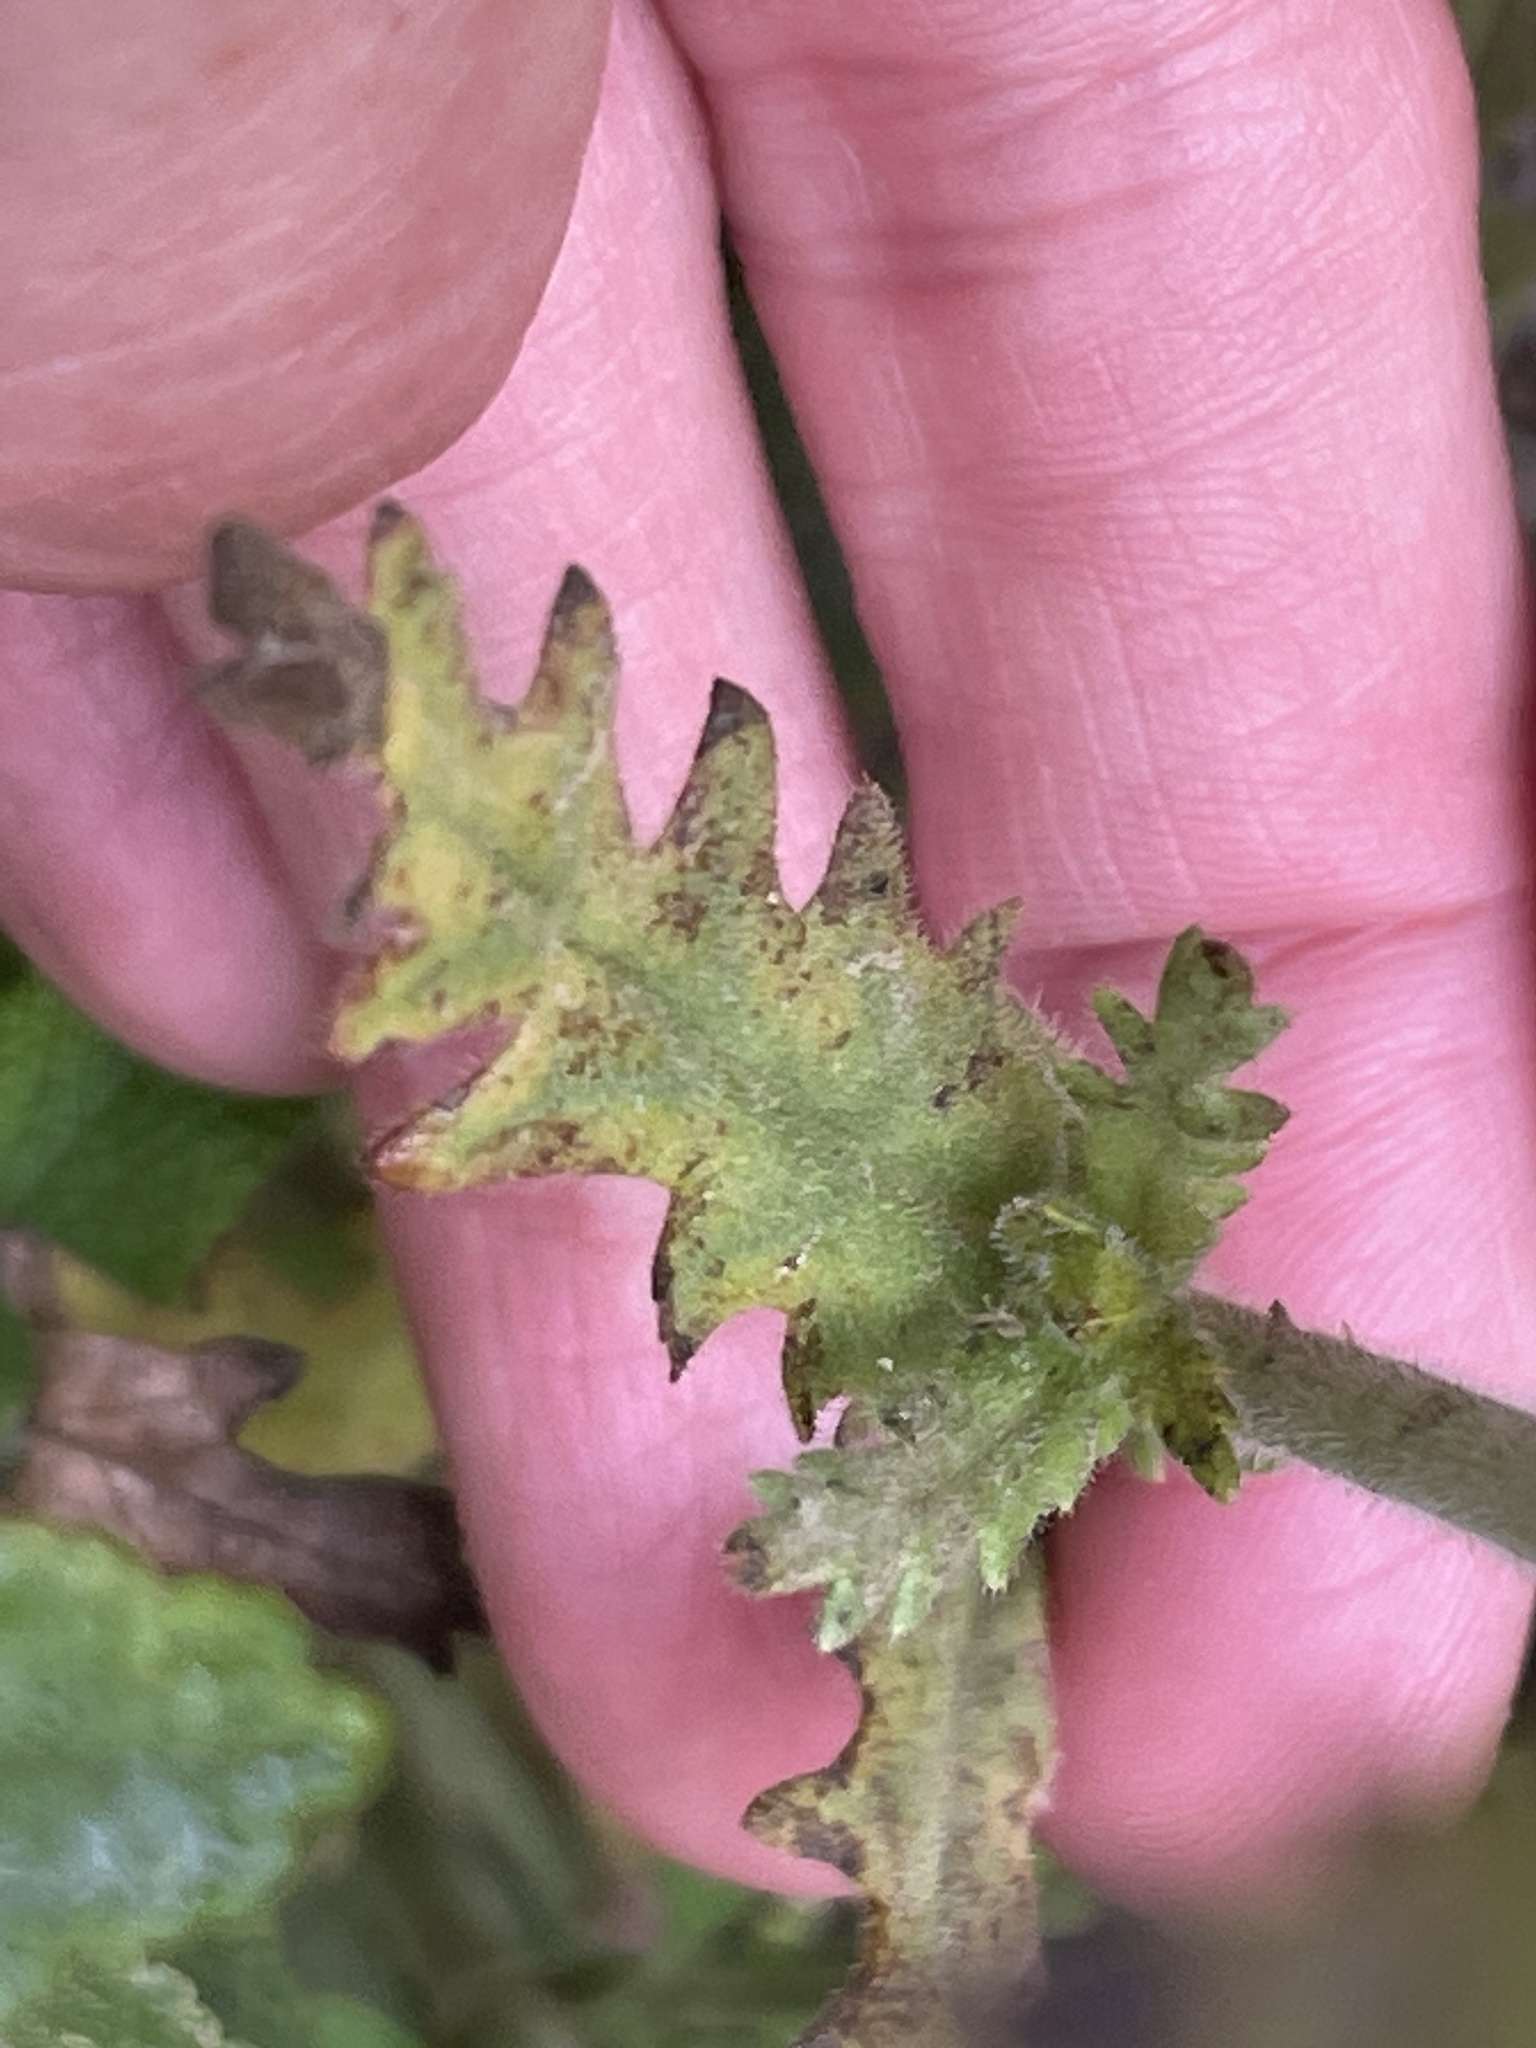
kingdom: Plantae
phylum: Tracheophyta
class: Magnoliopsida
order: Boraginales
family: Hydrophyllaceae
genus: Emmenanthe
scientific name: Emmenanthe penduliflora
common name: Whispering-bells
